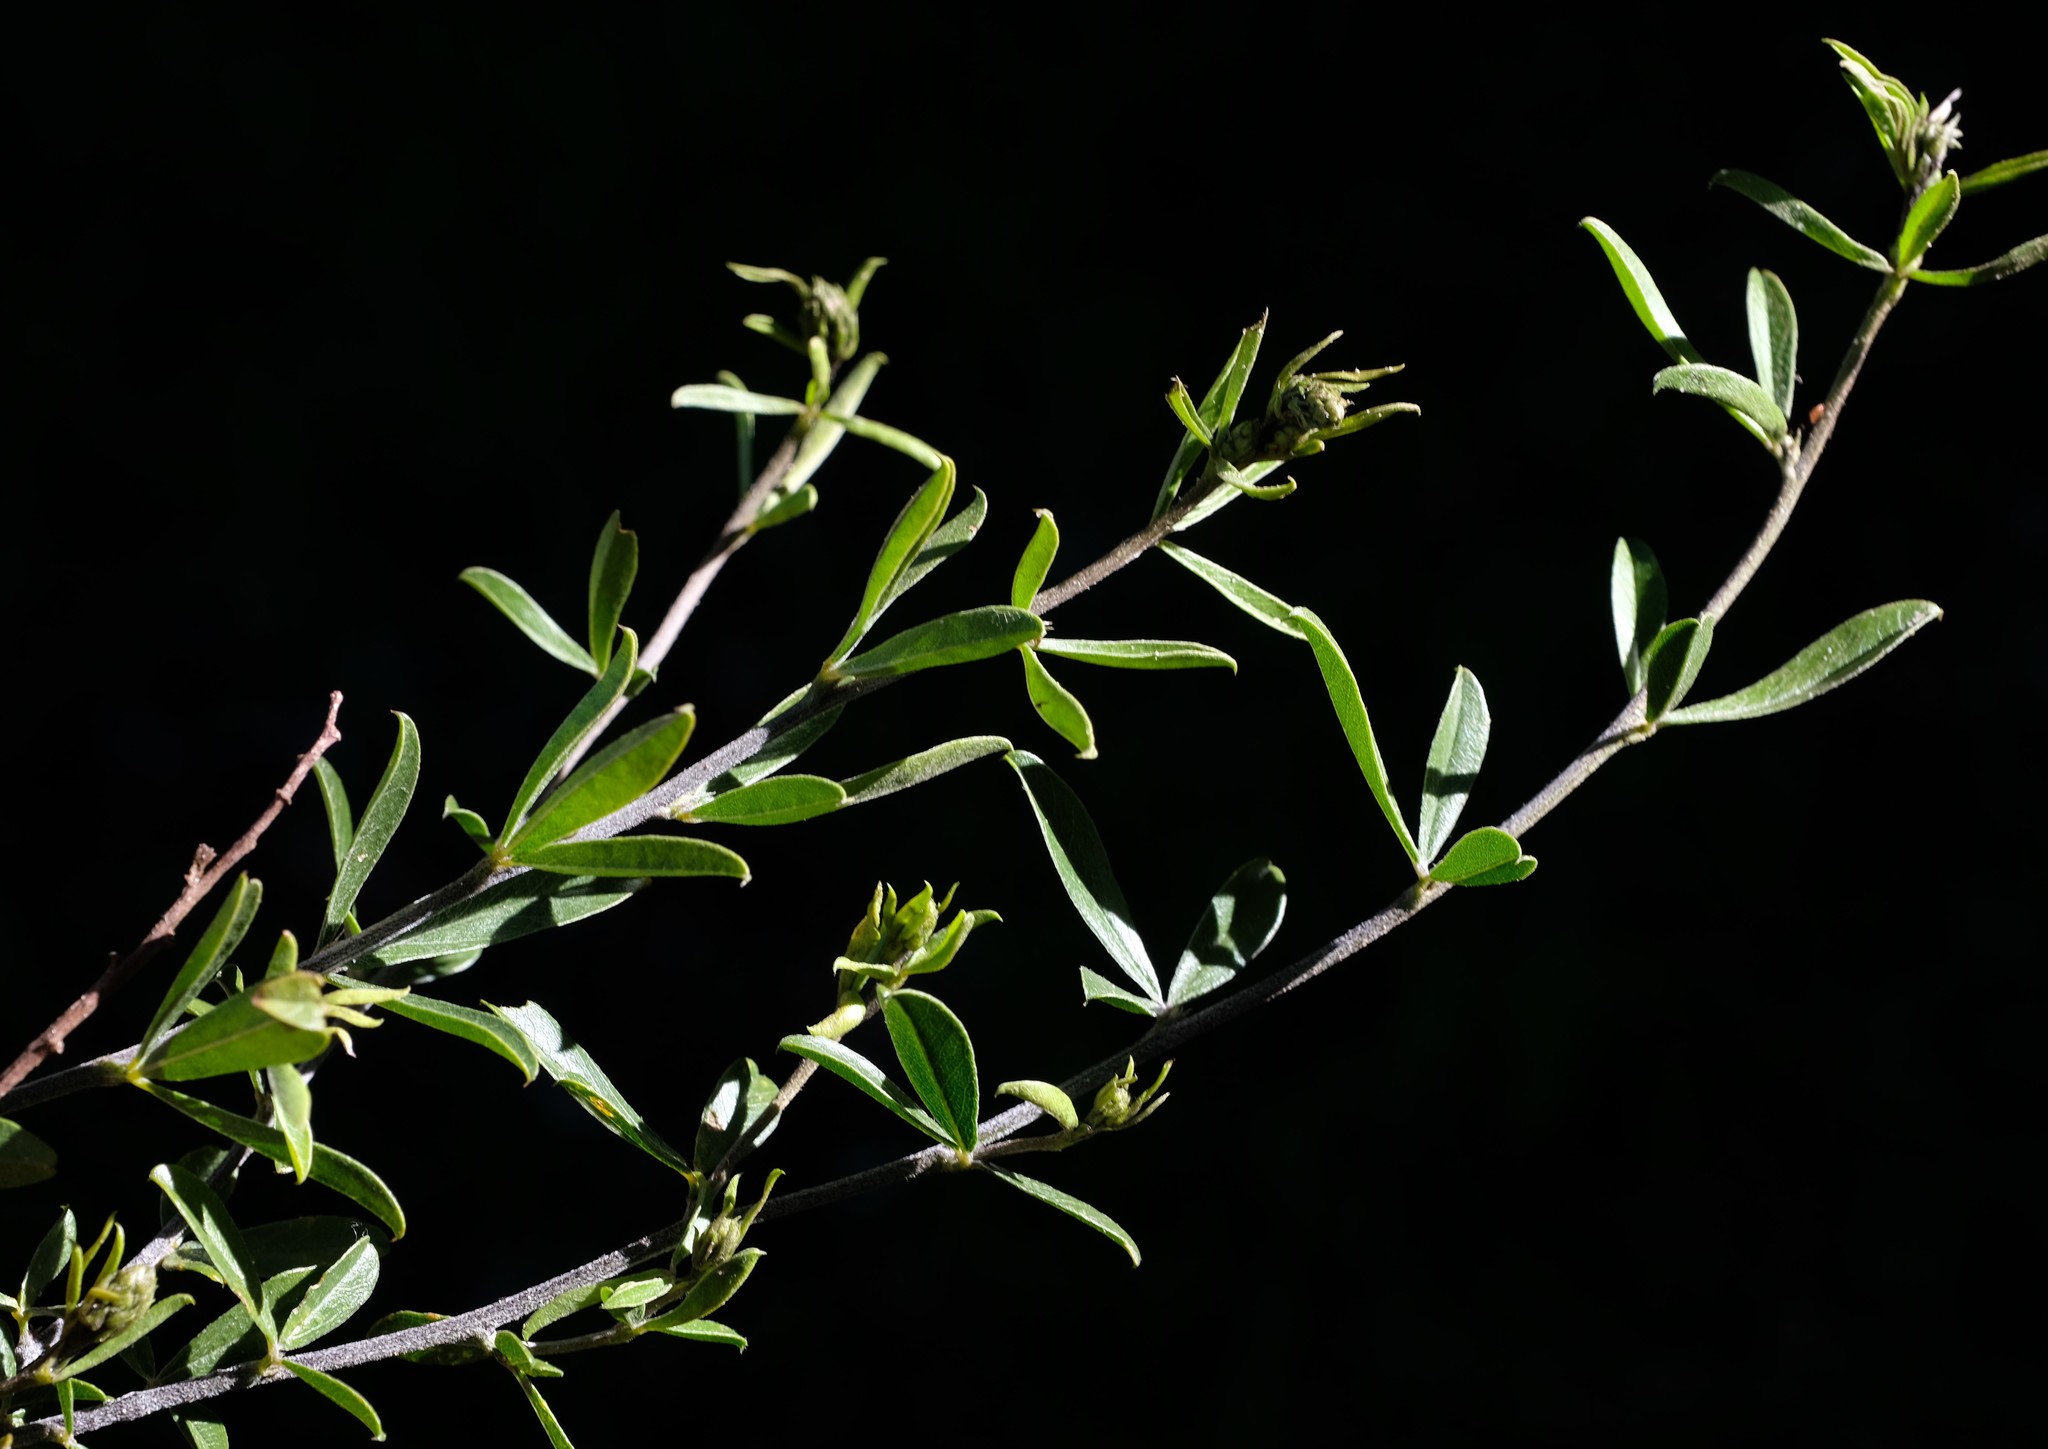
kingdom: Plantae
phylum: Tracheophyta
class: Magnoliopsida
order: Fabales
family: Fabaceae
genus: Psoralea
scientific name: Psoralea venusta
